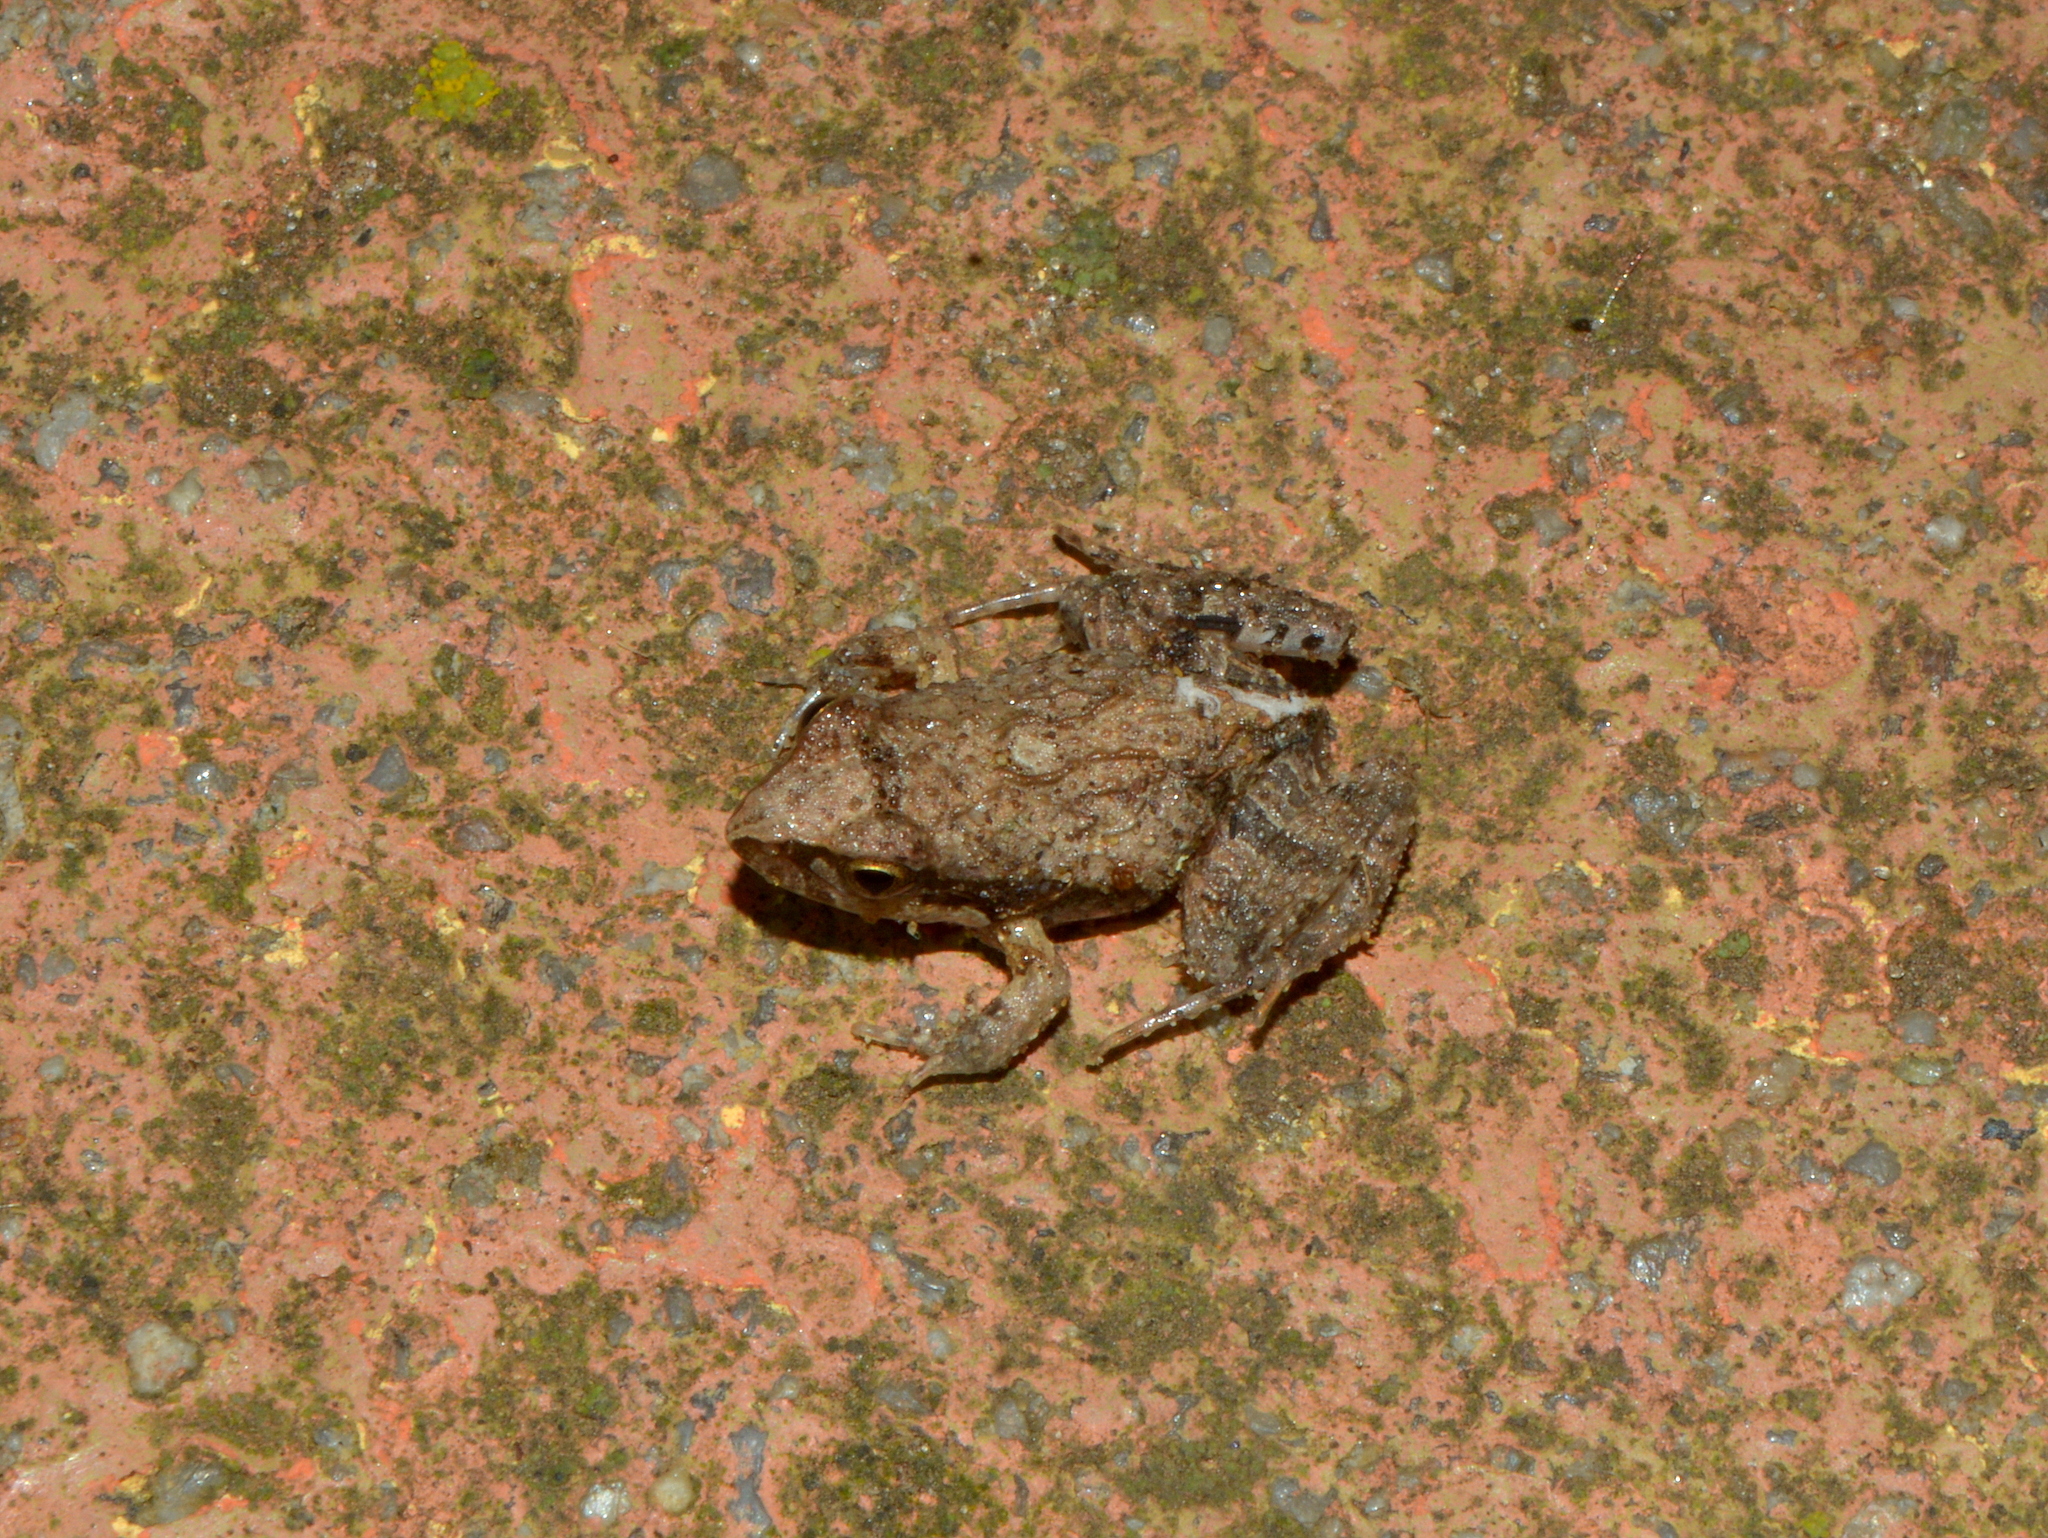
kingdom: Animalia
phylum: Chordata
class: Amphibia
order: Anura
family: Leptodactylidae
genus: Physalaemus
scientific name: Physalaemus gracilis
